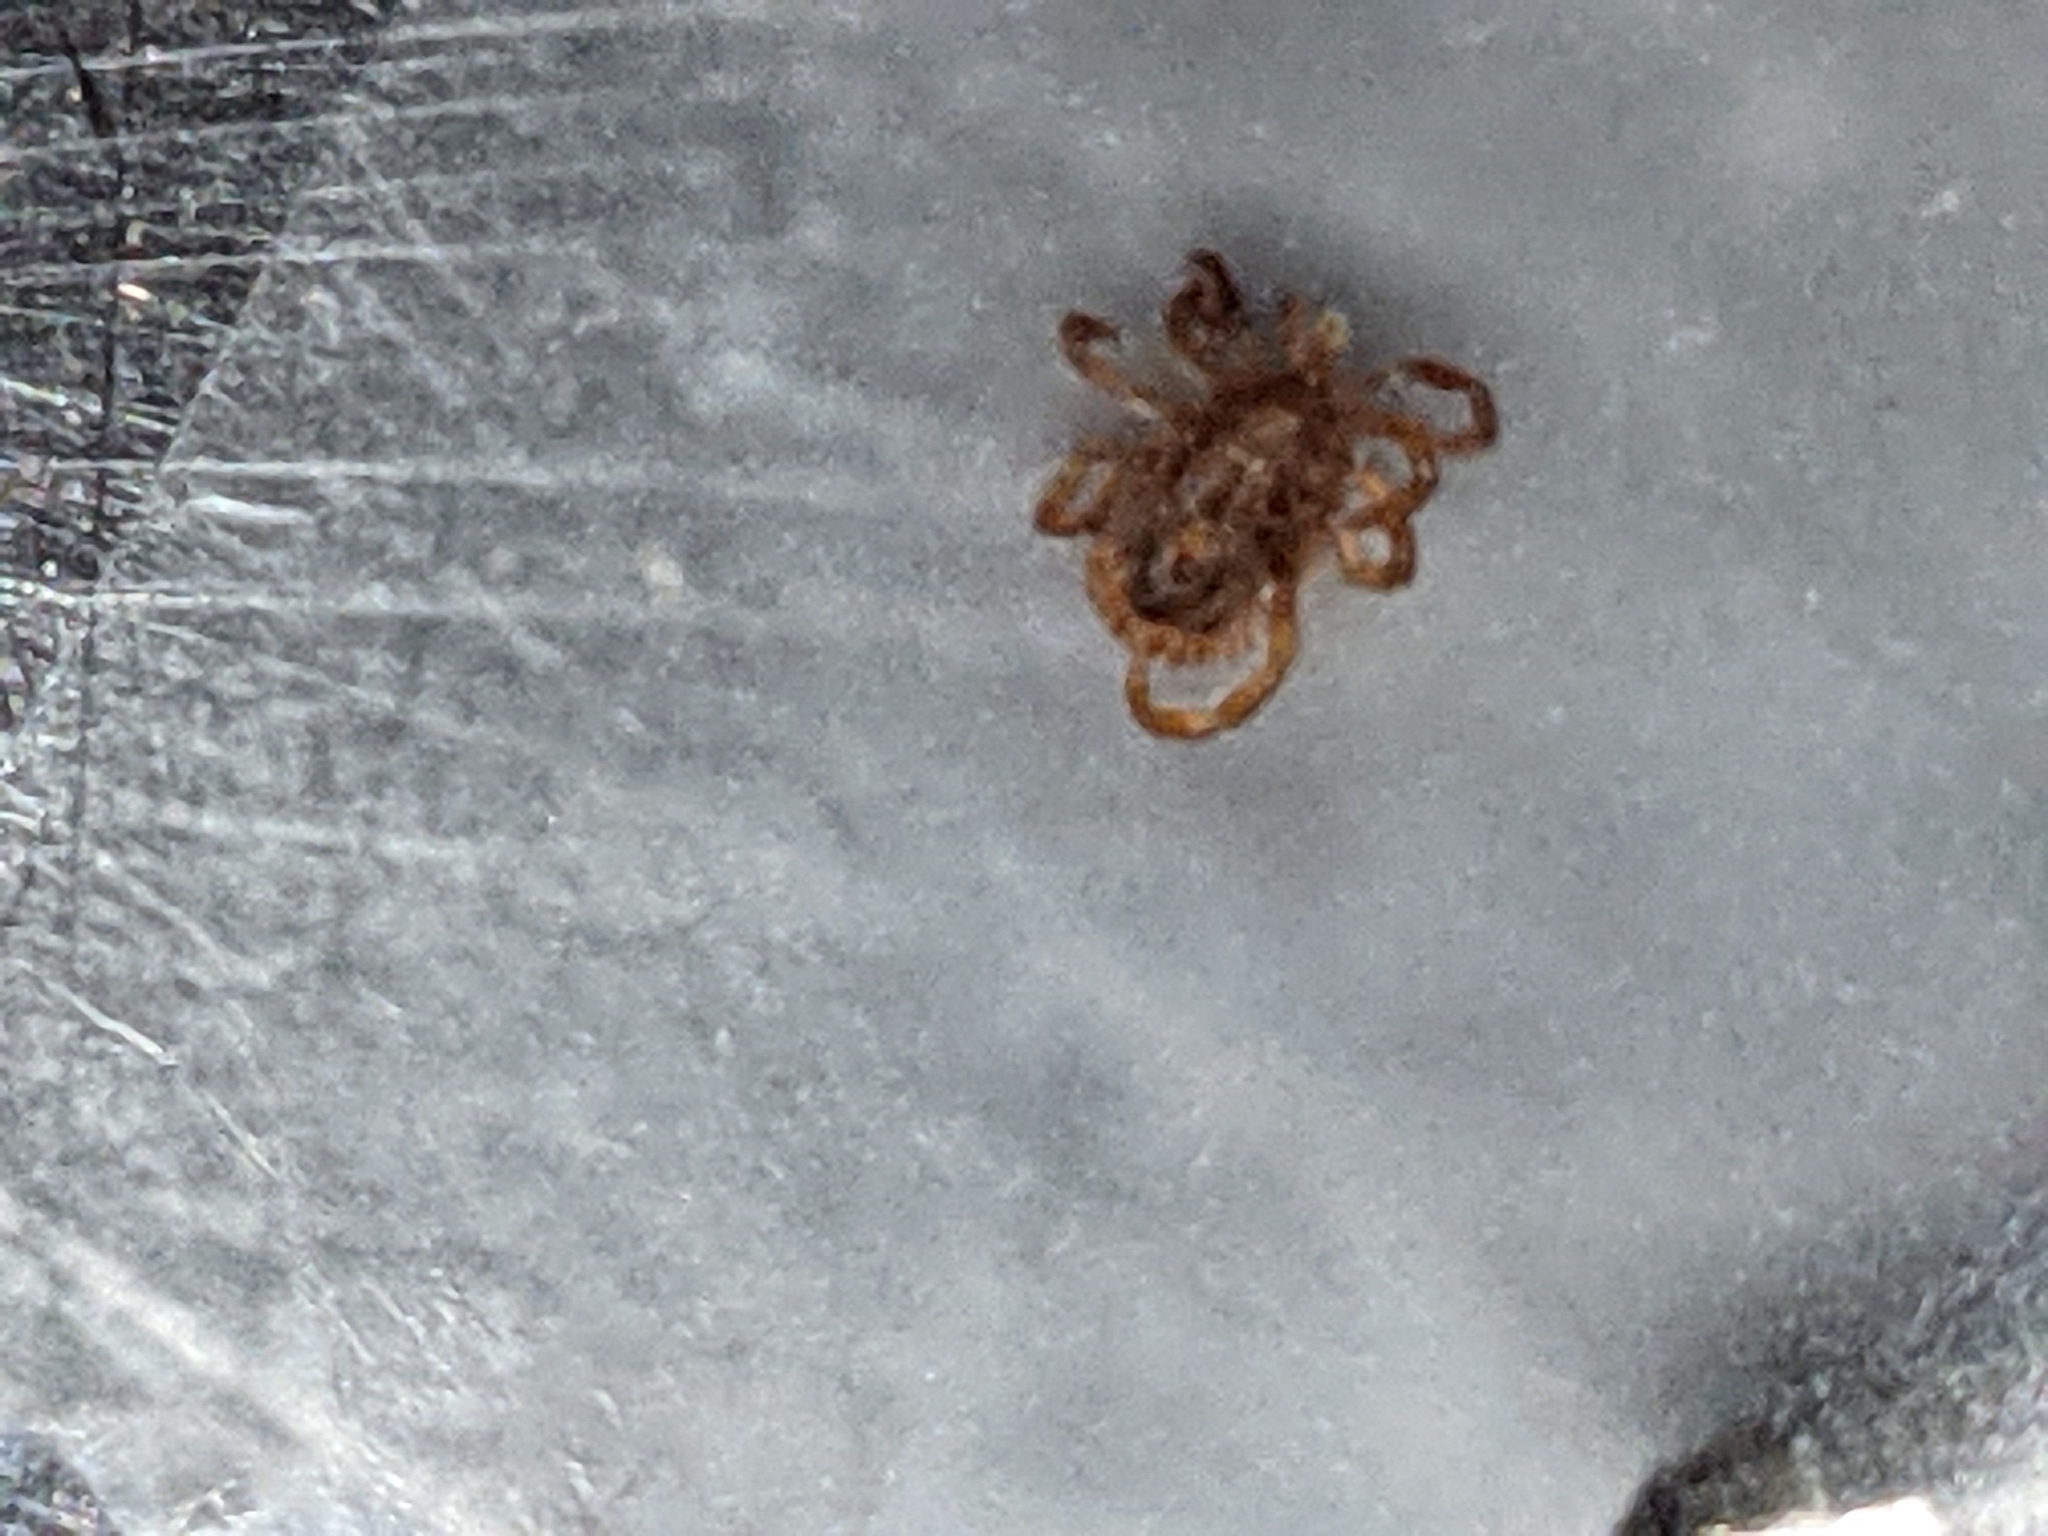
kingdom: Animalia
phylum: Arthropoda
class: Arachnida
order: Ixodida
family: Ixodidae
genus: Amblyomma
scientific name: Amblyomma americanum
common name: Lone star tick
